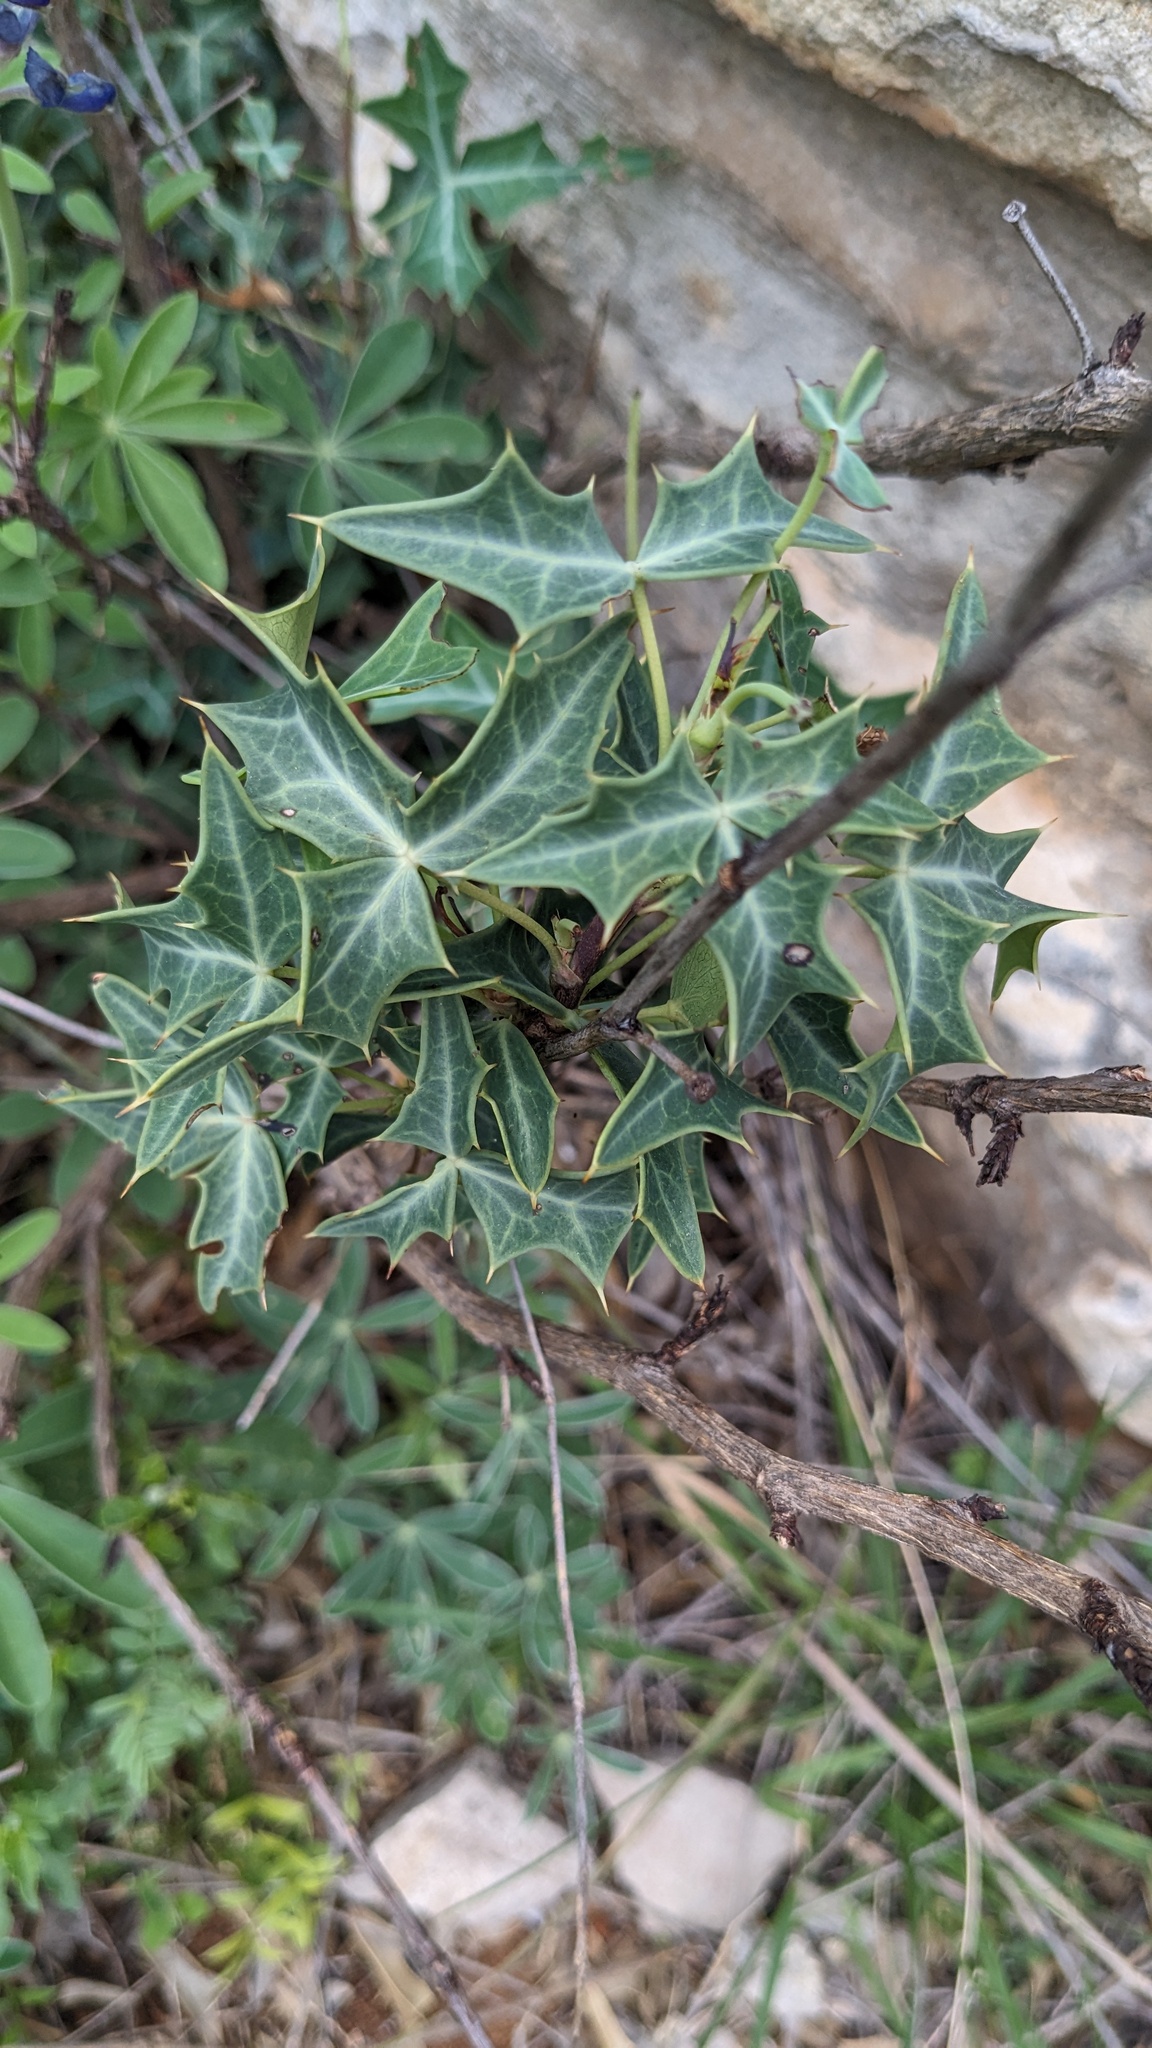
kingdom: Plantae
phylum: Tracheophyta
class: Magnoliopsida
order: Ranunculales
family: Berberidaceae
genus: Alloberberis
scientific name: Alloberberis trifoliolata
